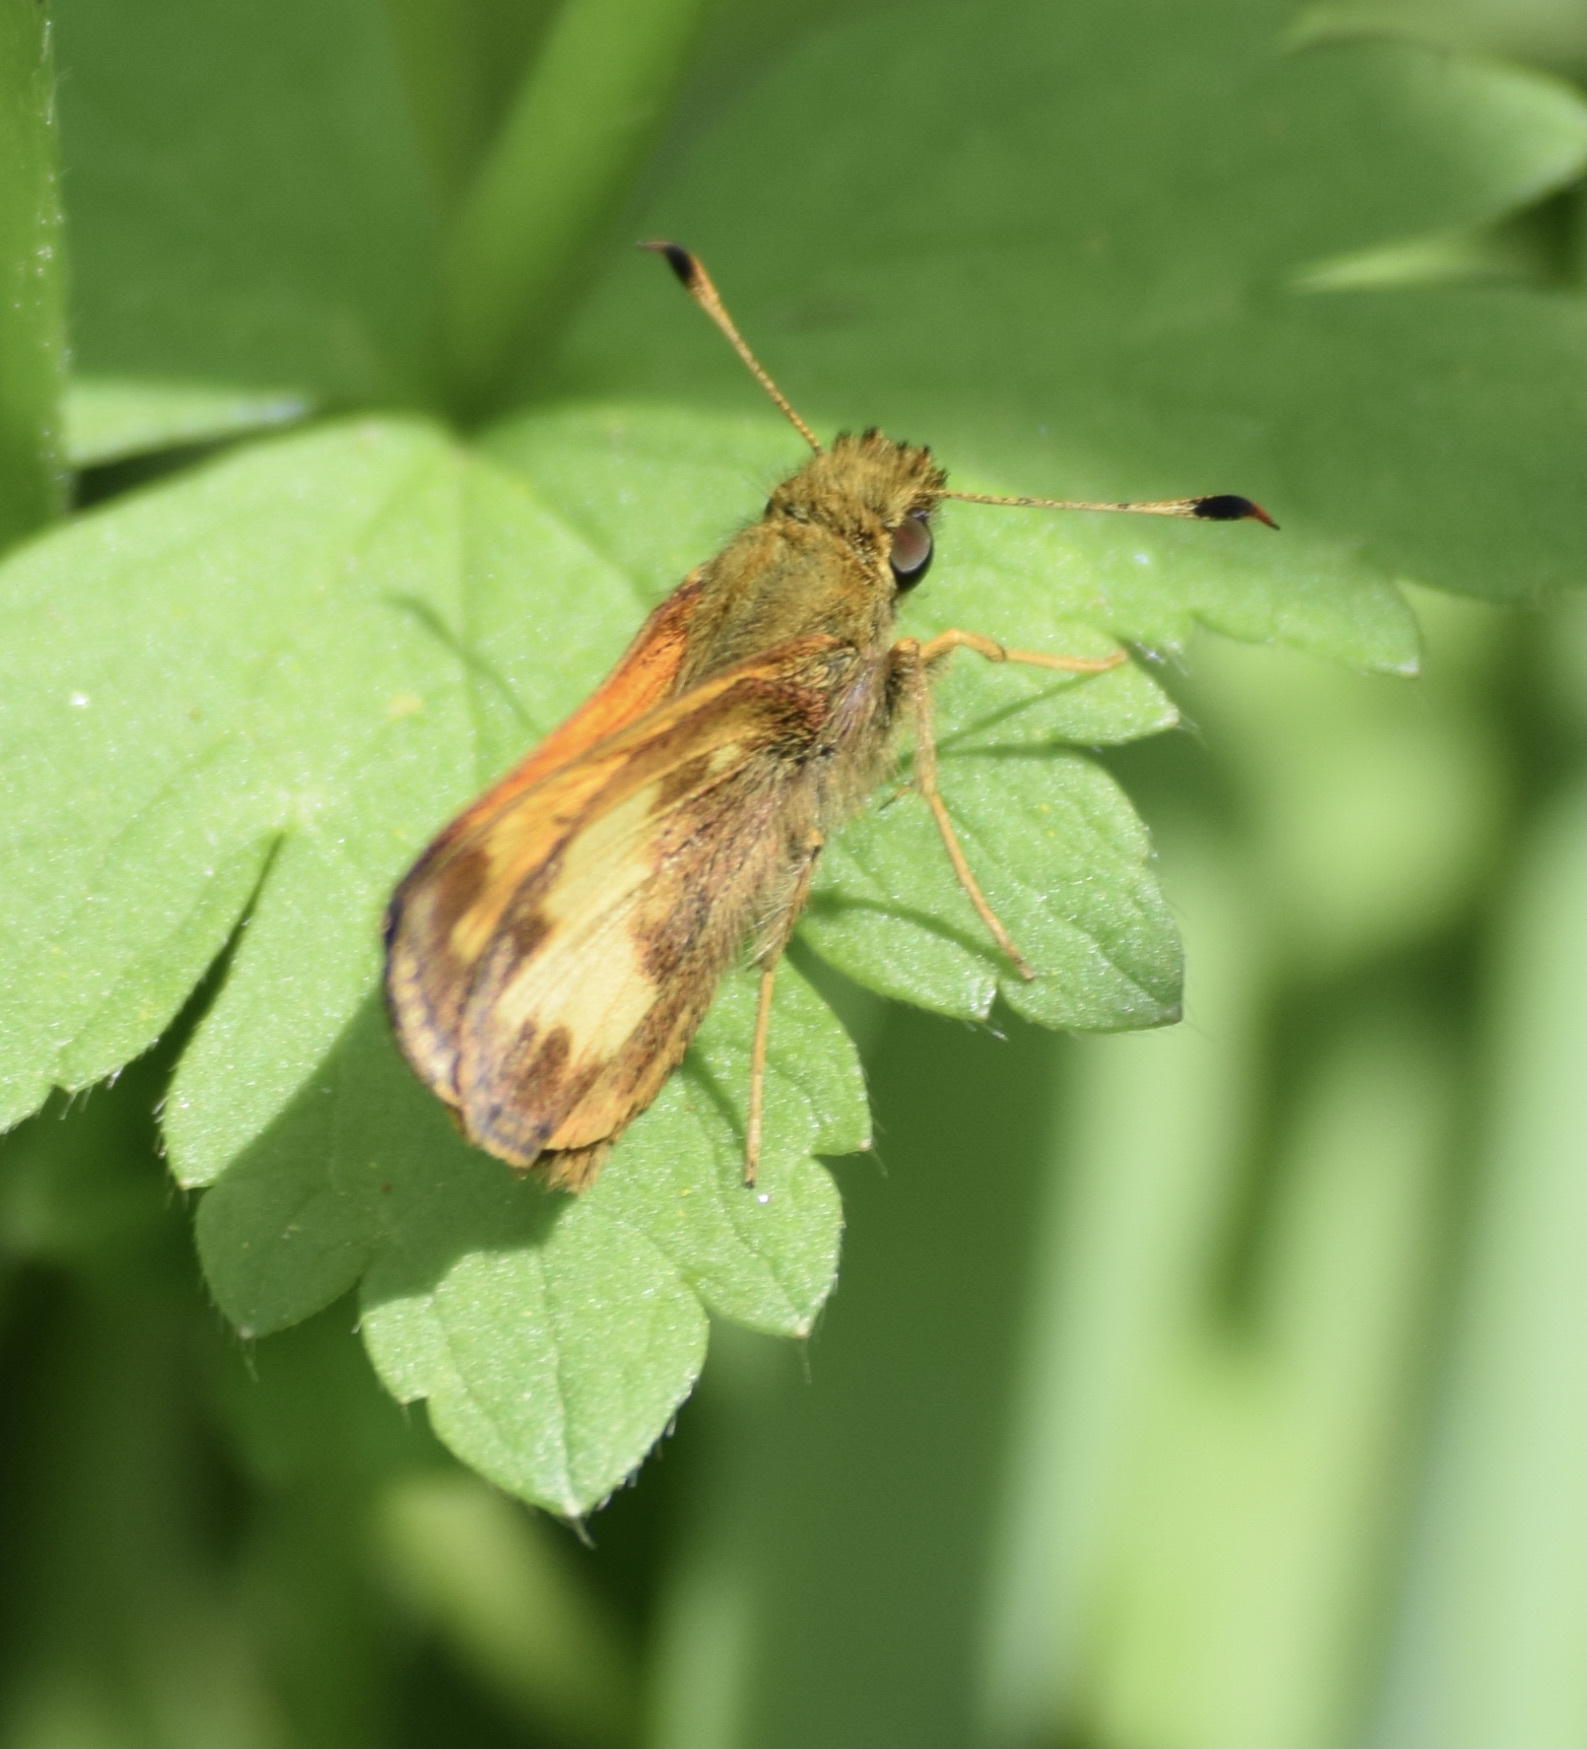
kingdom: Animalia
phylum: Arthropoda
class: Insecta
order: Lepidoptera
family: Hesperiidae
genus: Lon
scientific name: Lon hobomok
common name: Hobomok skipper
